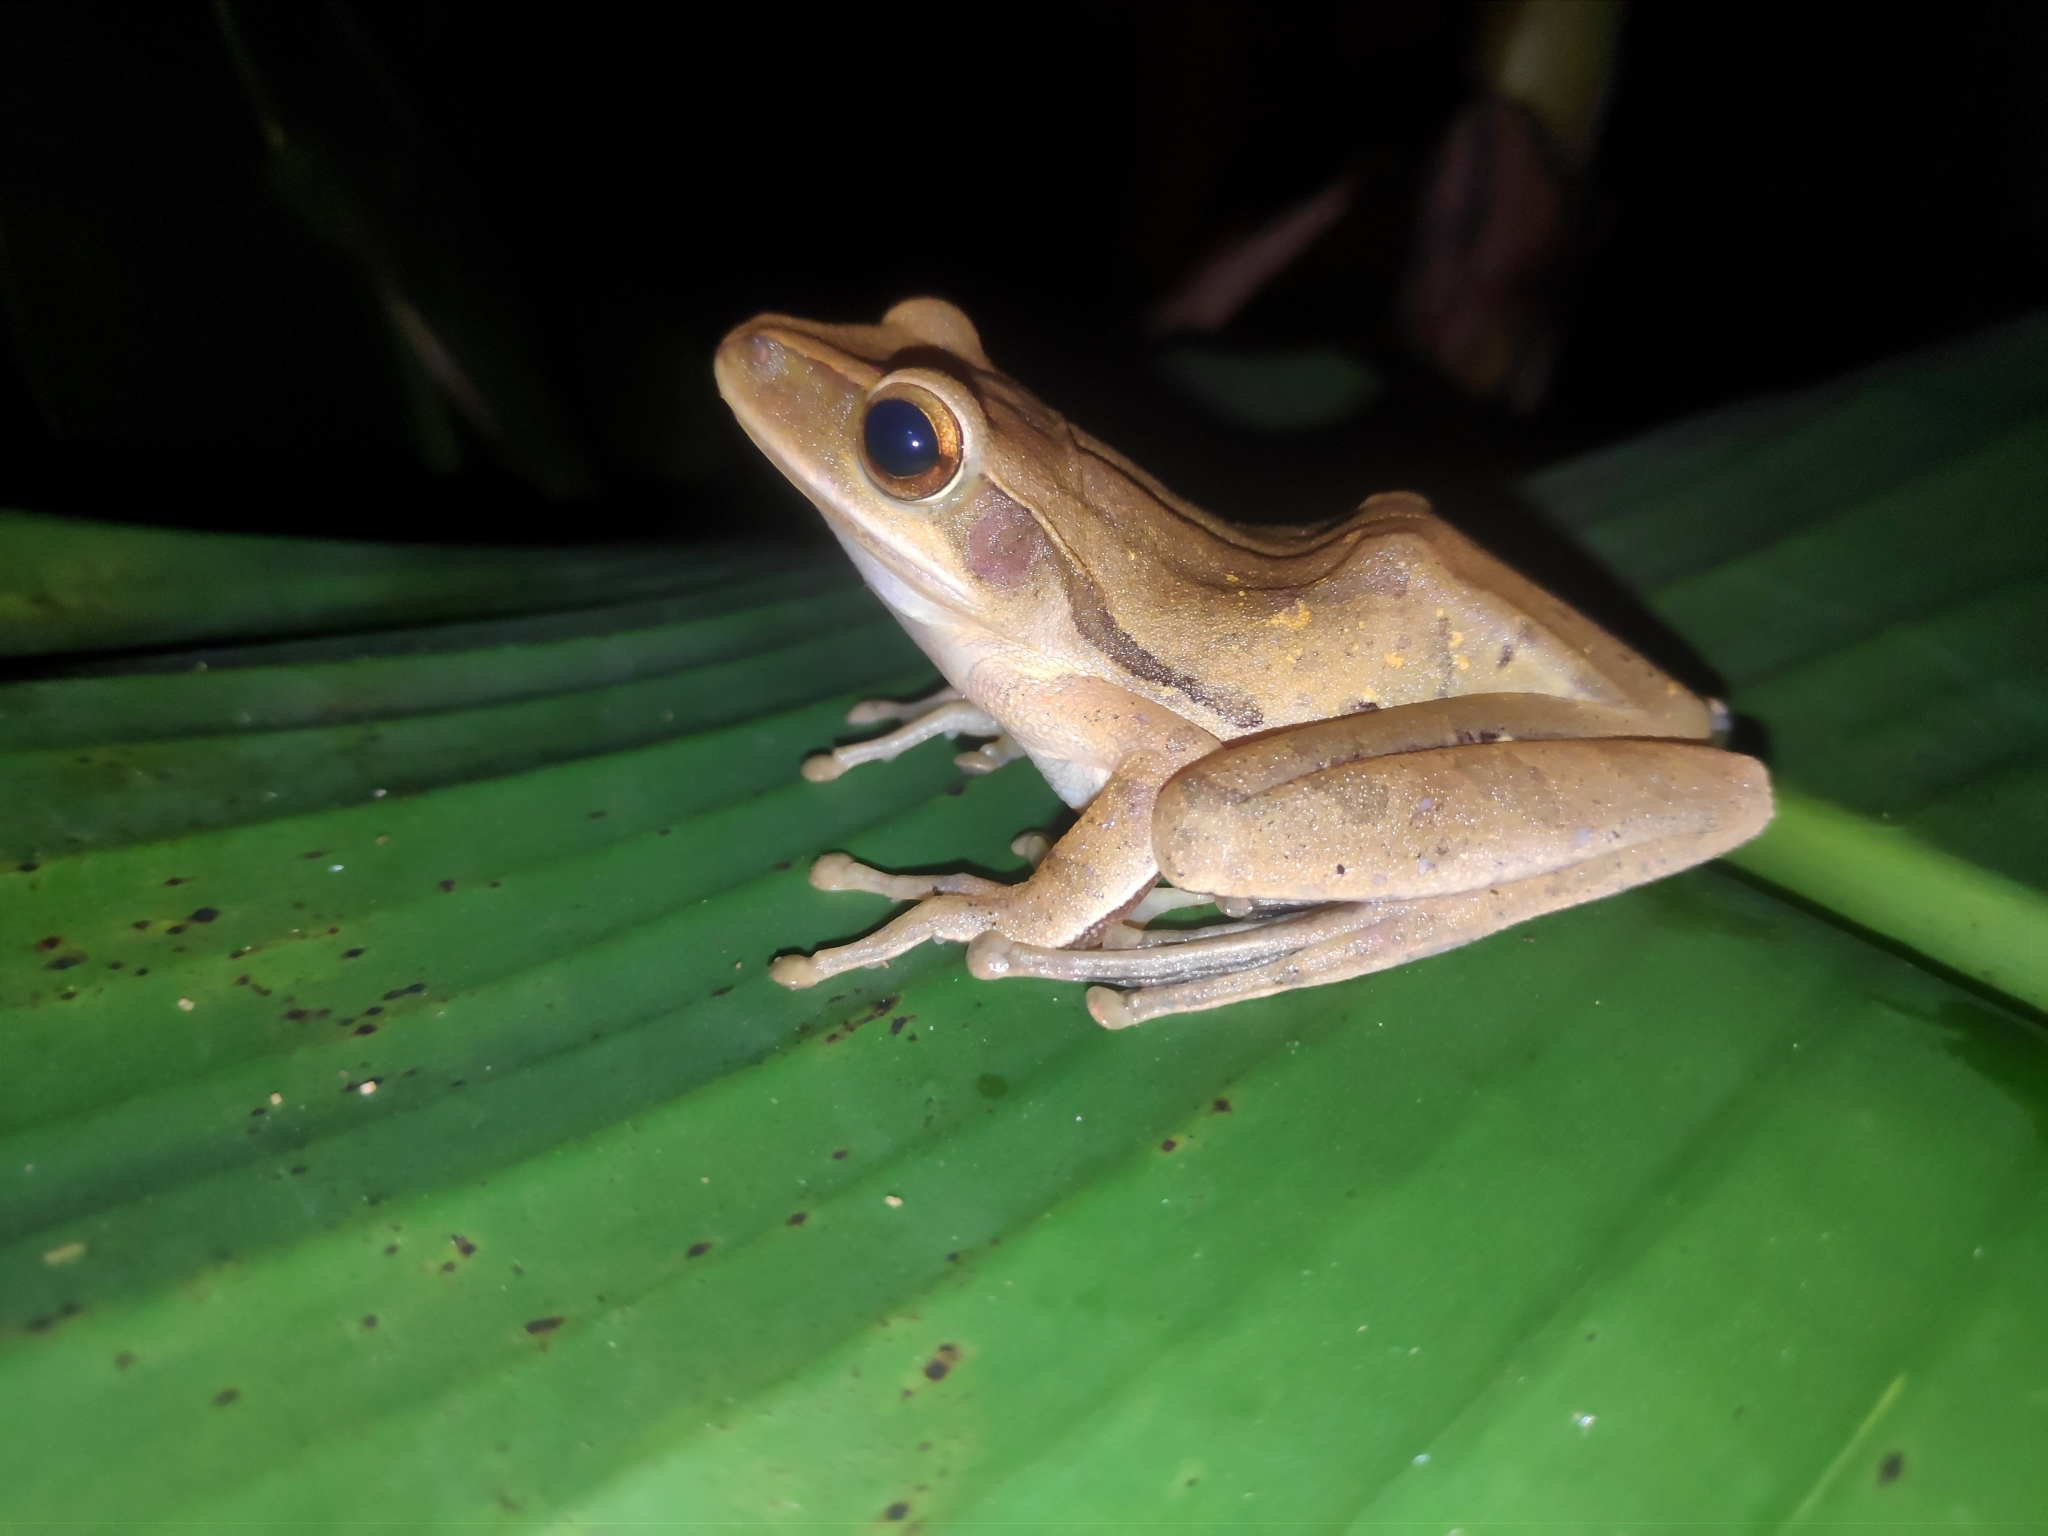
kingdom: Animalia
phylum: Chordata
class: Amphibia
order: Anura
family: Rhacophoridae
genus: Polypedates
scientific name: Polypedates leucomystax
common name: Common tree frog/four-lined tree frog
